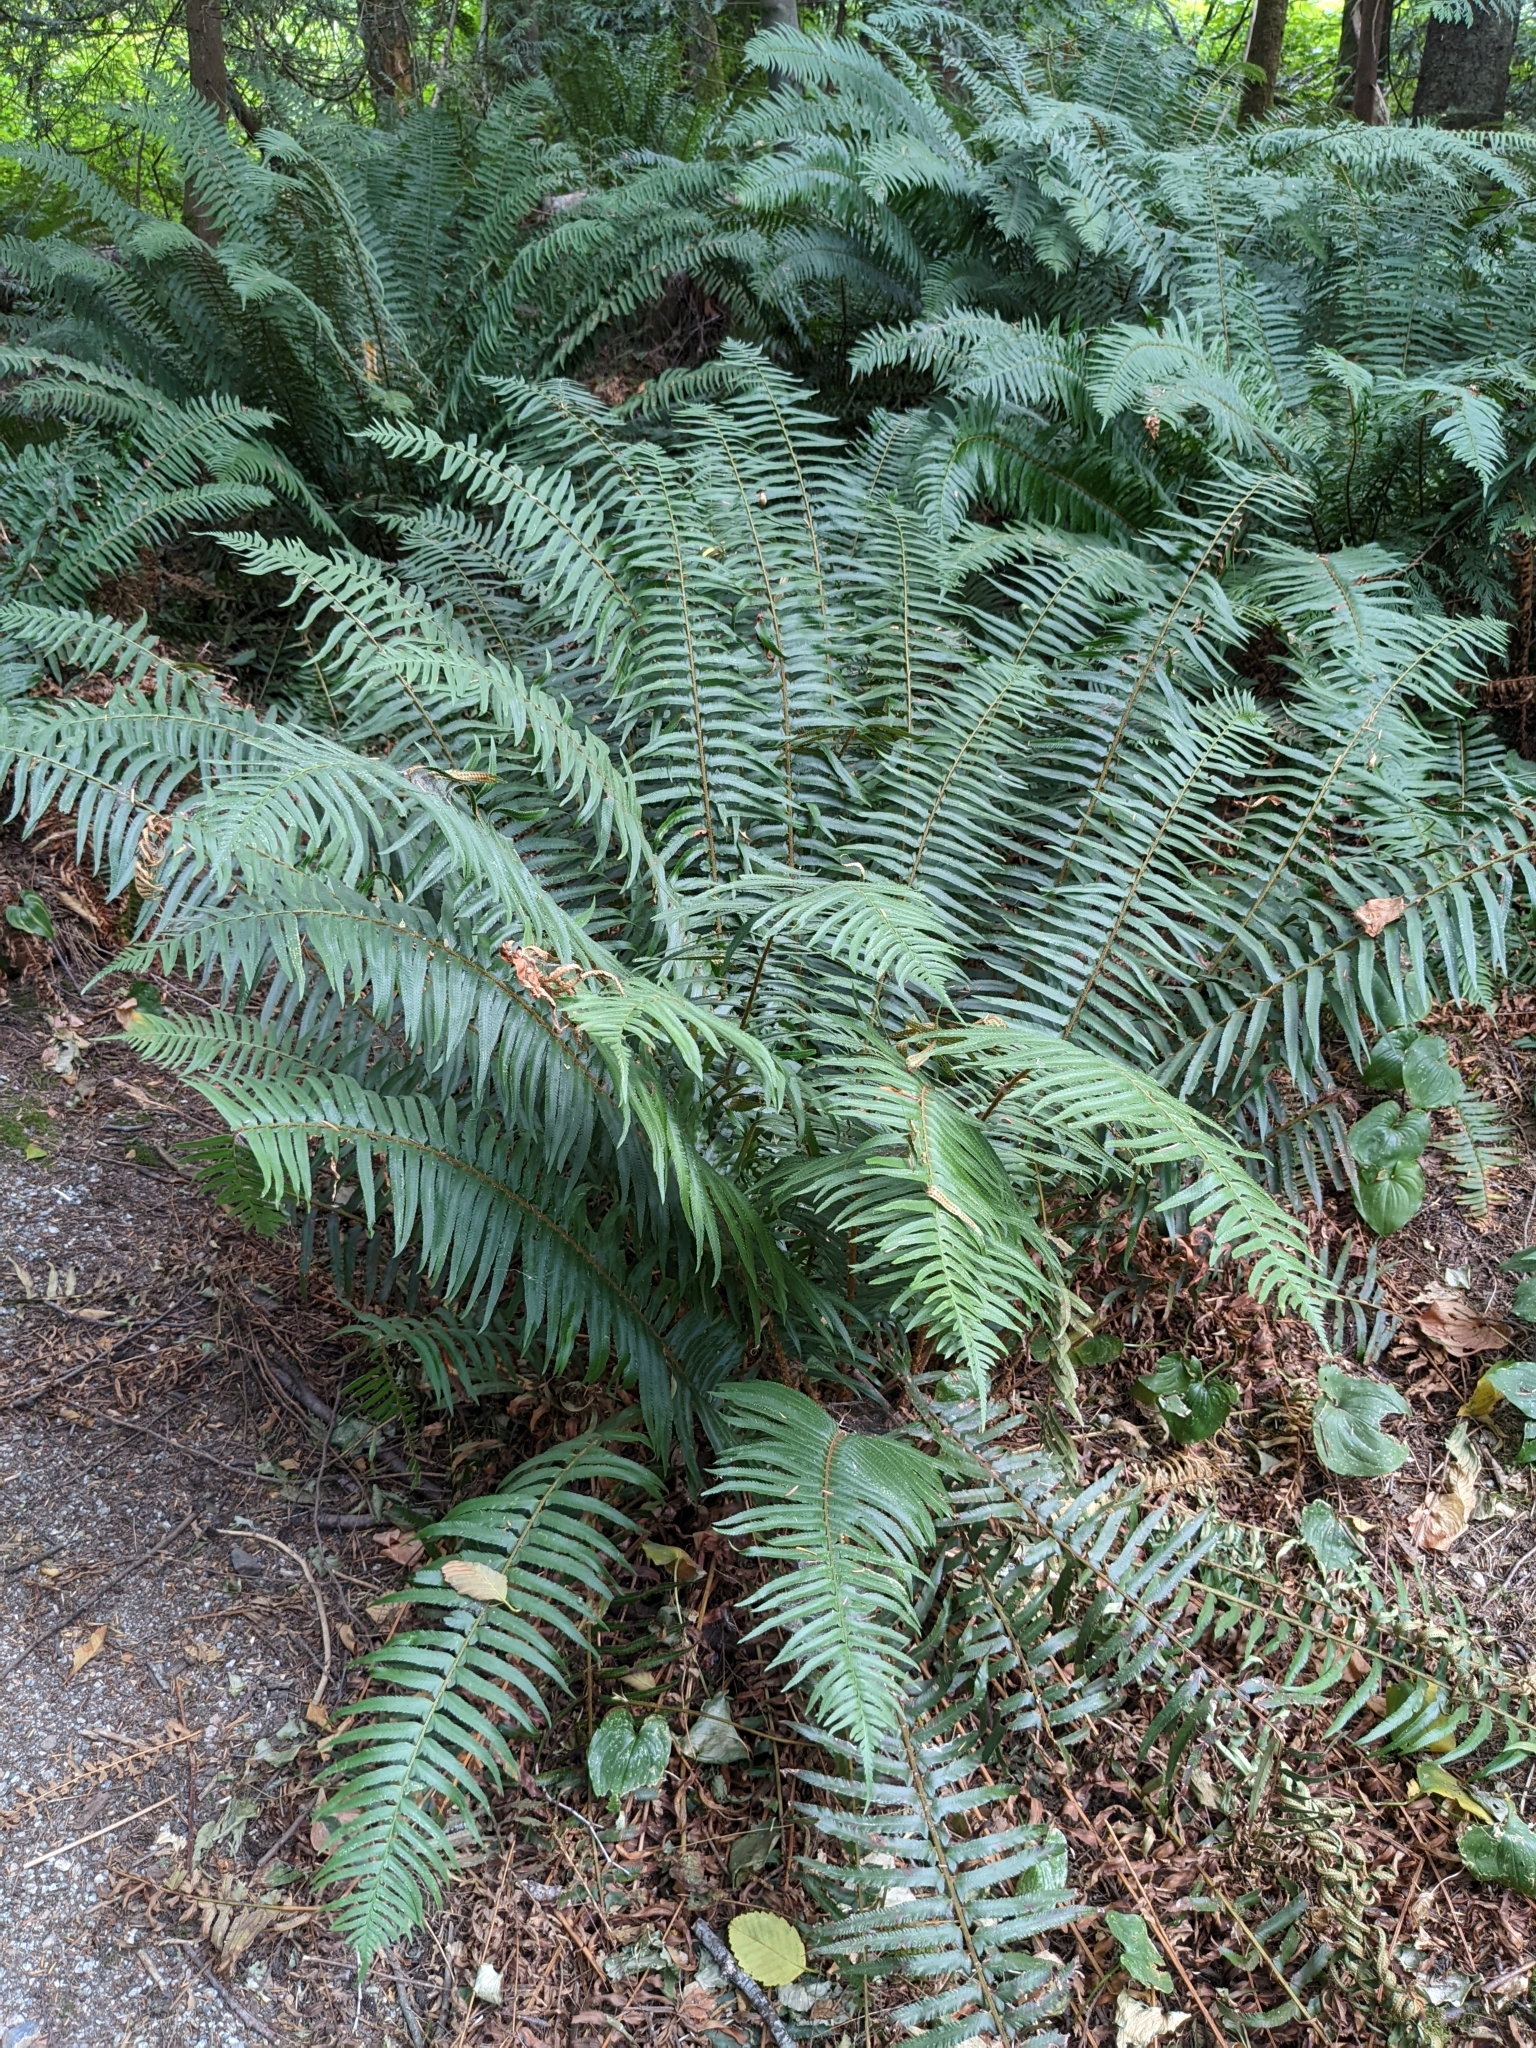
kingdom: Plantae
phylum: Tracheophyta
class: Polypodiopsida
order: Polypodiales
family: Dryopteridaceae
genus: Polystichum
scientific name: Polystichum munitum
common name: Western sword-fern
